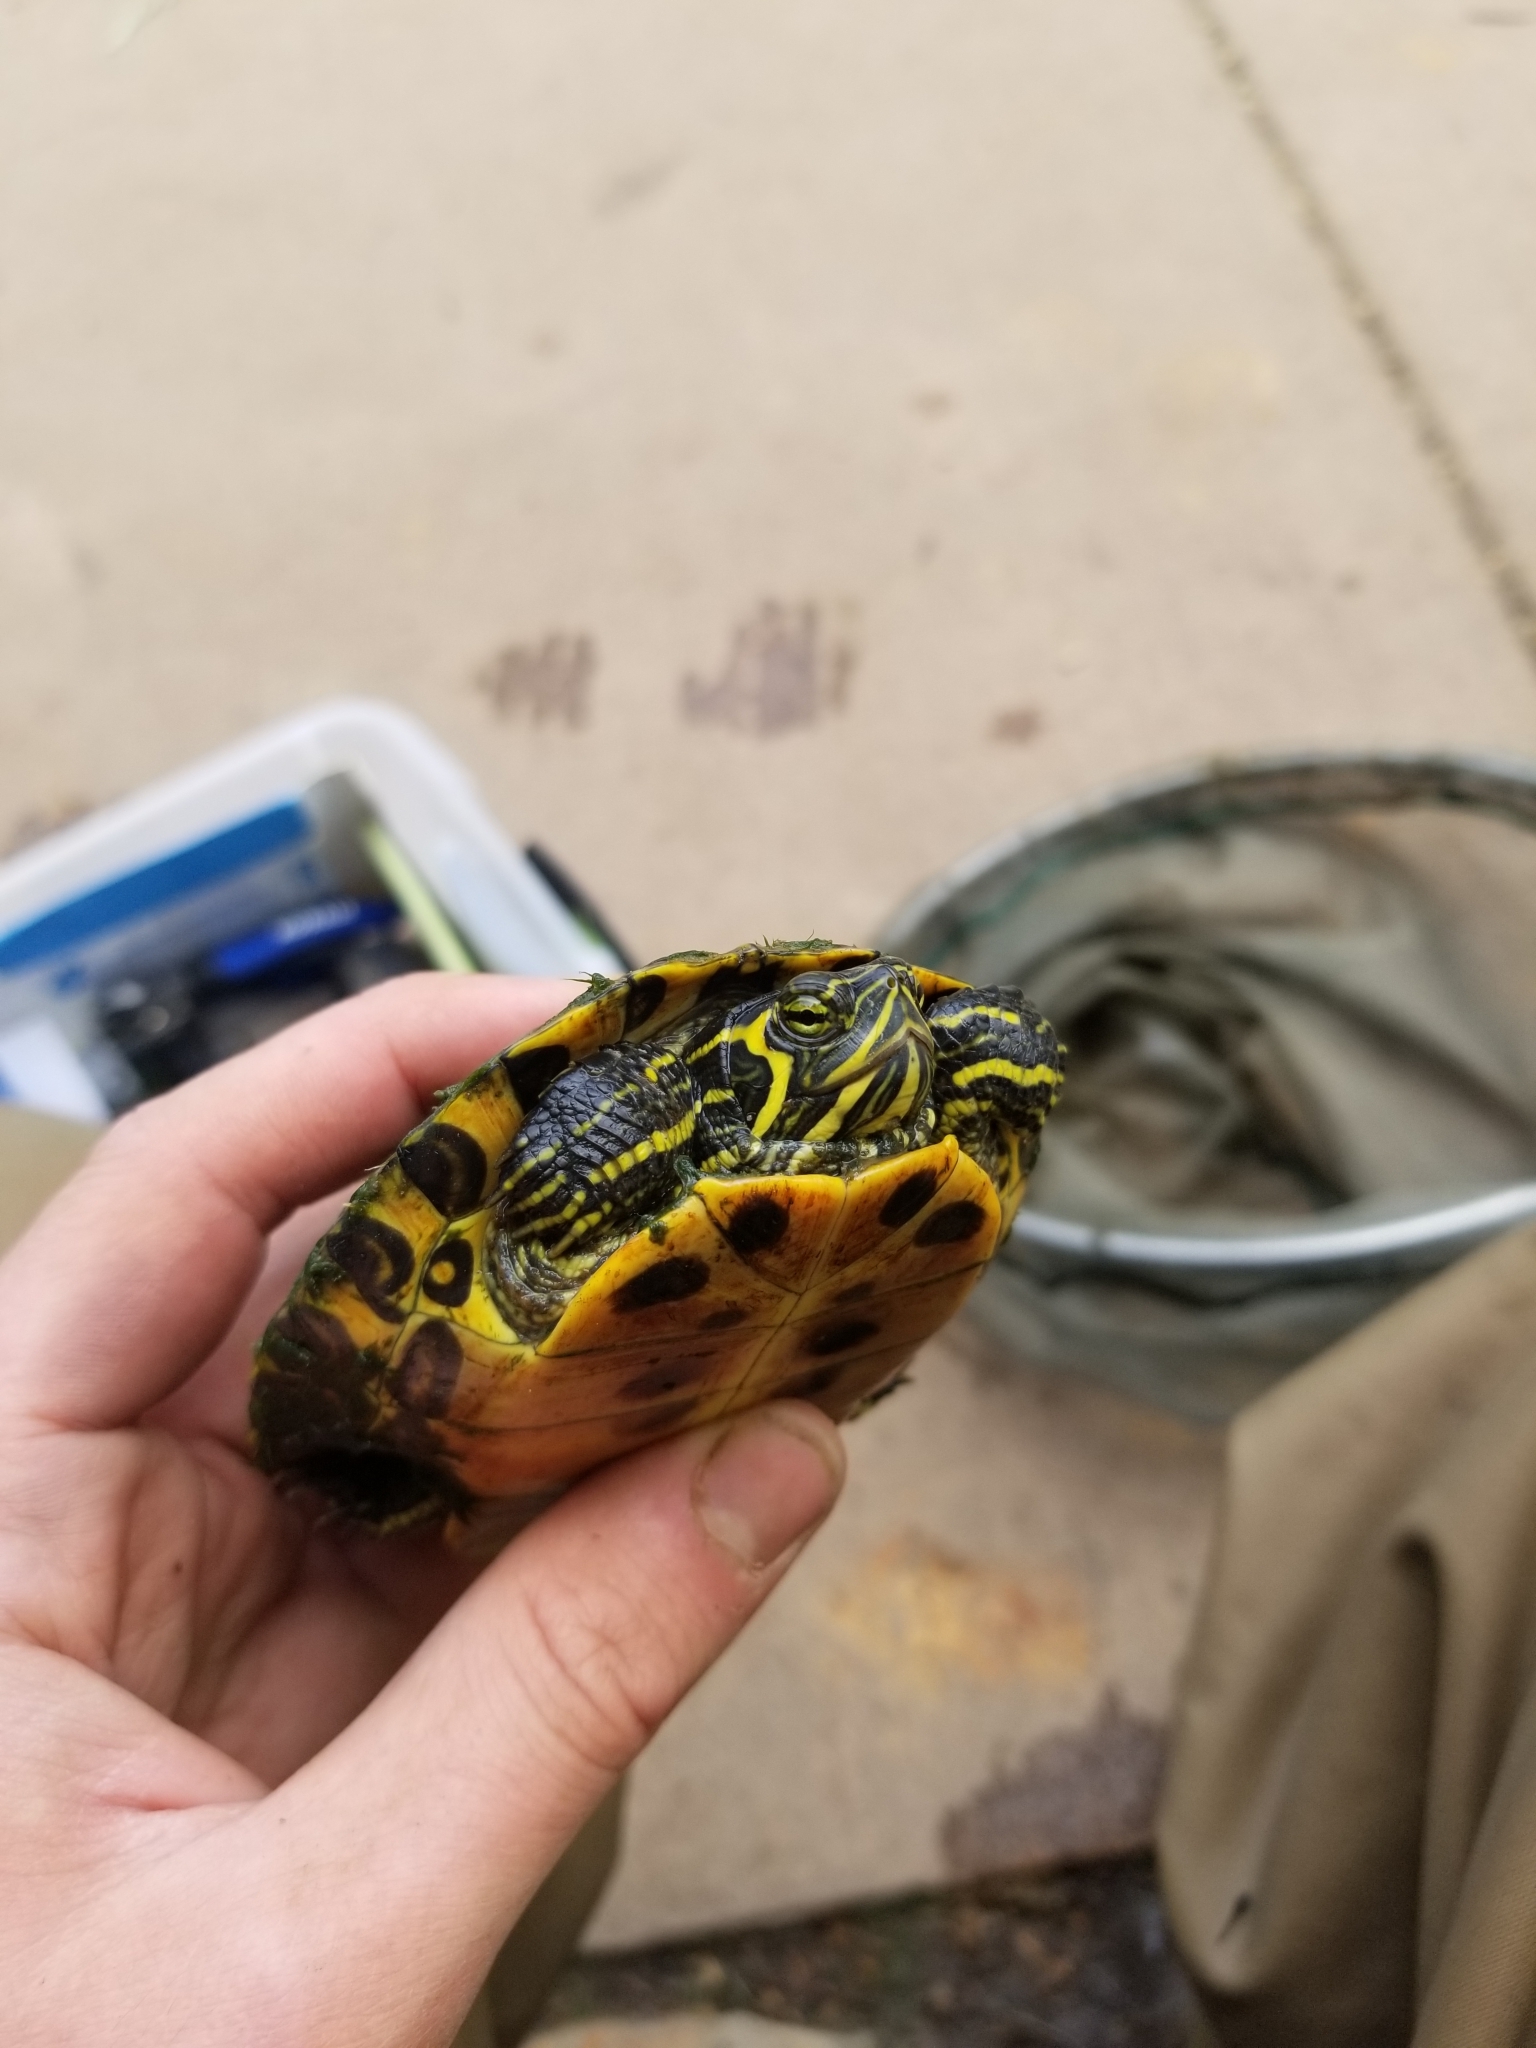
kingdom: Animalia
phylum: Chordata
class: Testudines
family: Emydidae
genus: Trachemys
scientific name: Trachemys scripta
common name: Slider
